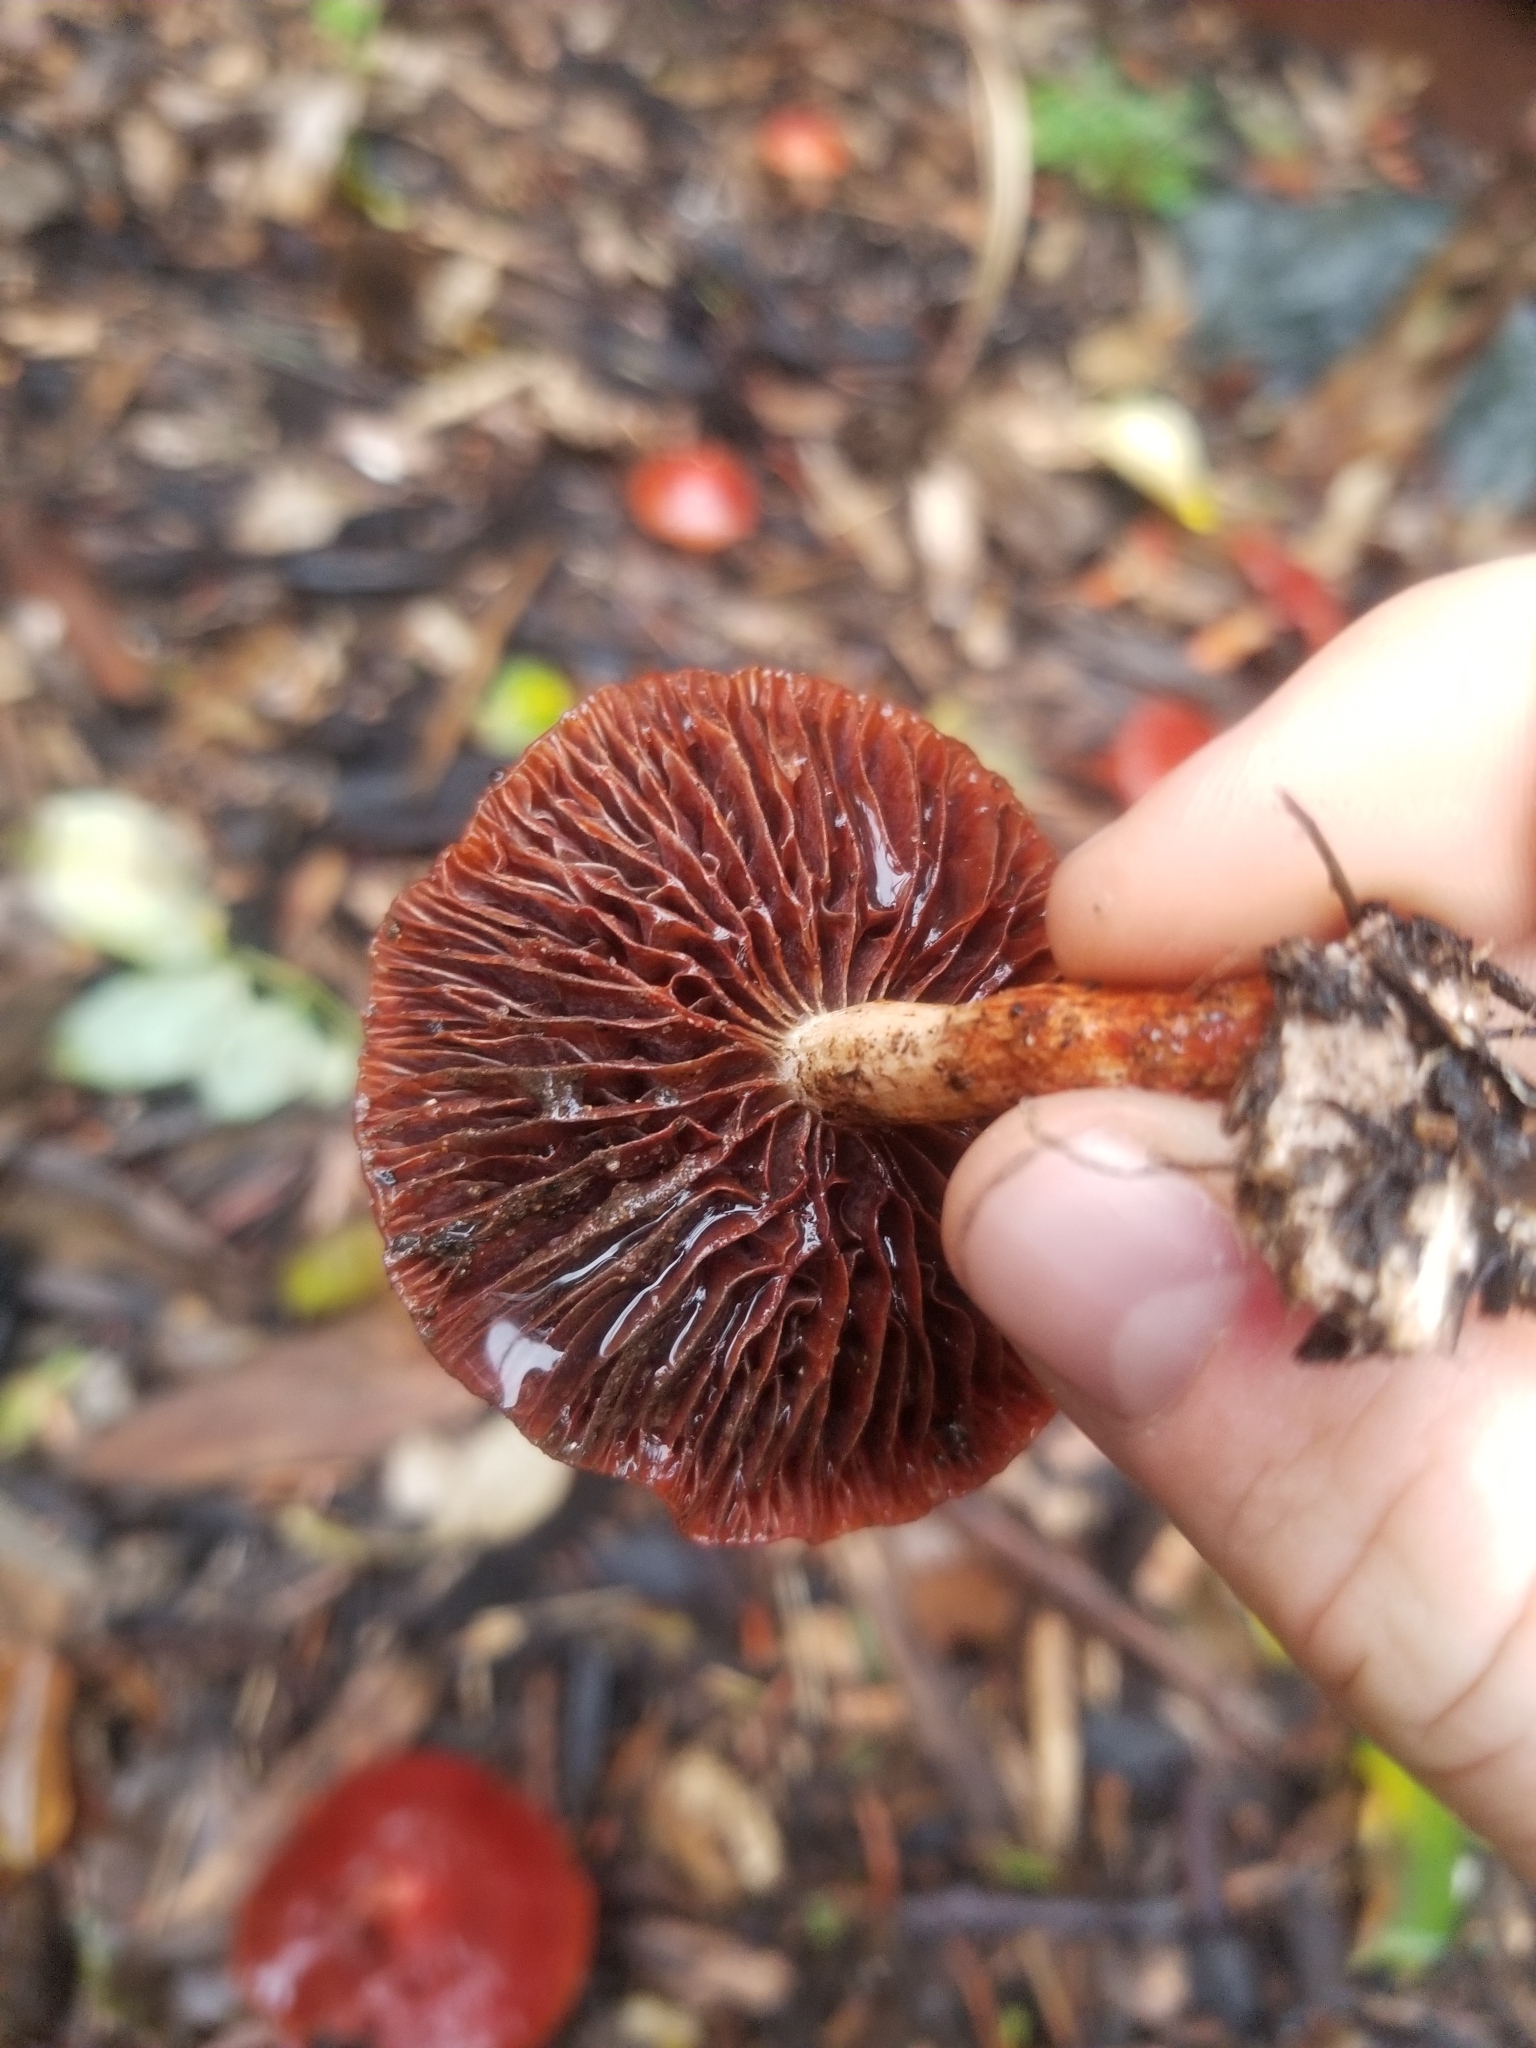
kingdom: Fungi
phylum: Basidiomycota
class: Agaricomycetes
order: Agaricales
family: Strophariaceae
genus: Leratiomyces
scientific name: Leratiomyces ceres
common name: Redlead roundhead
